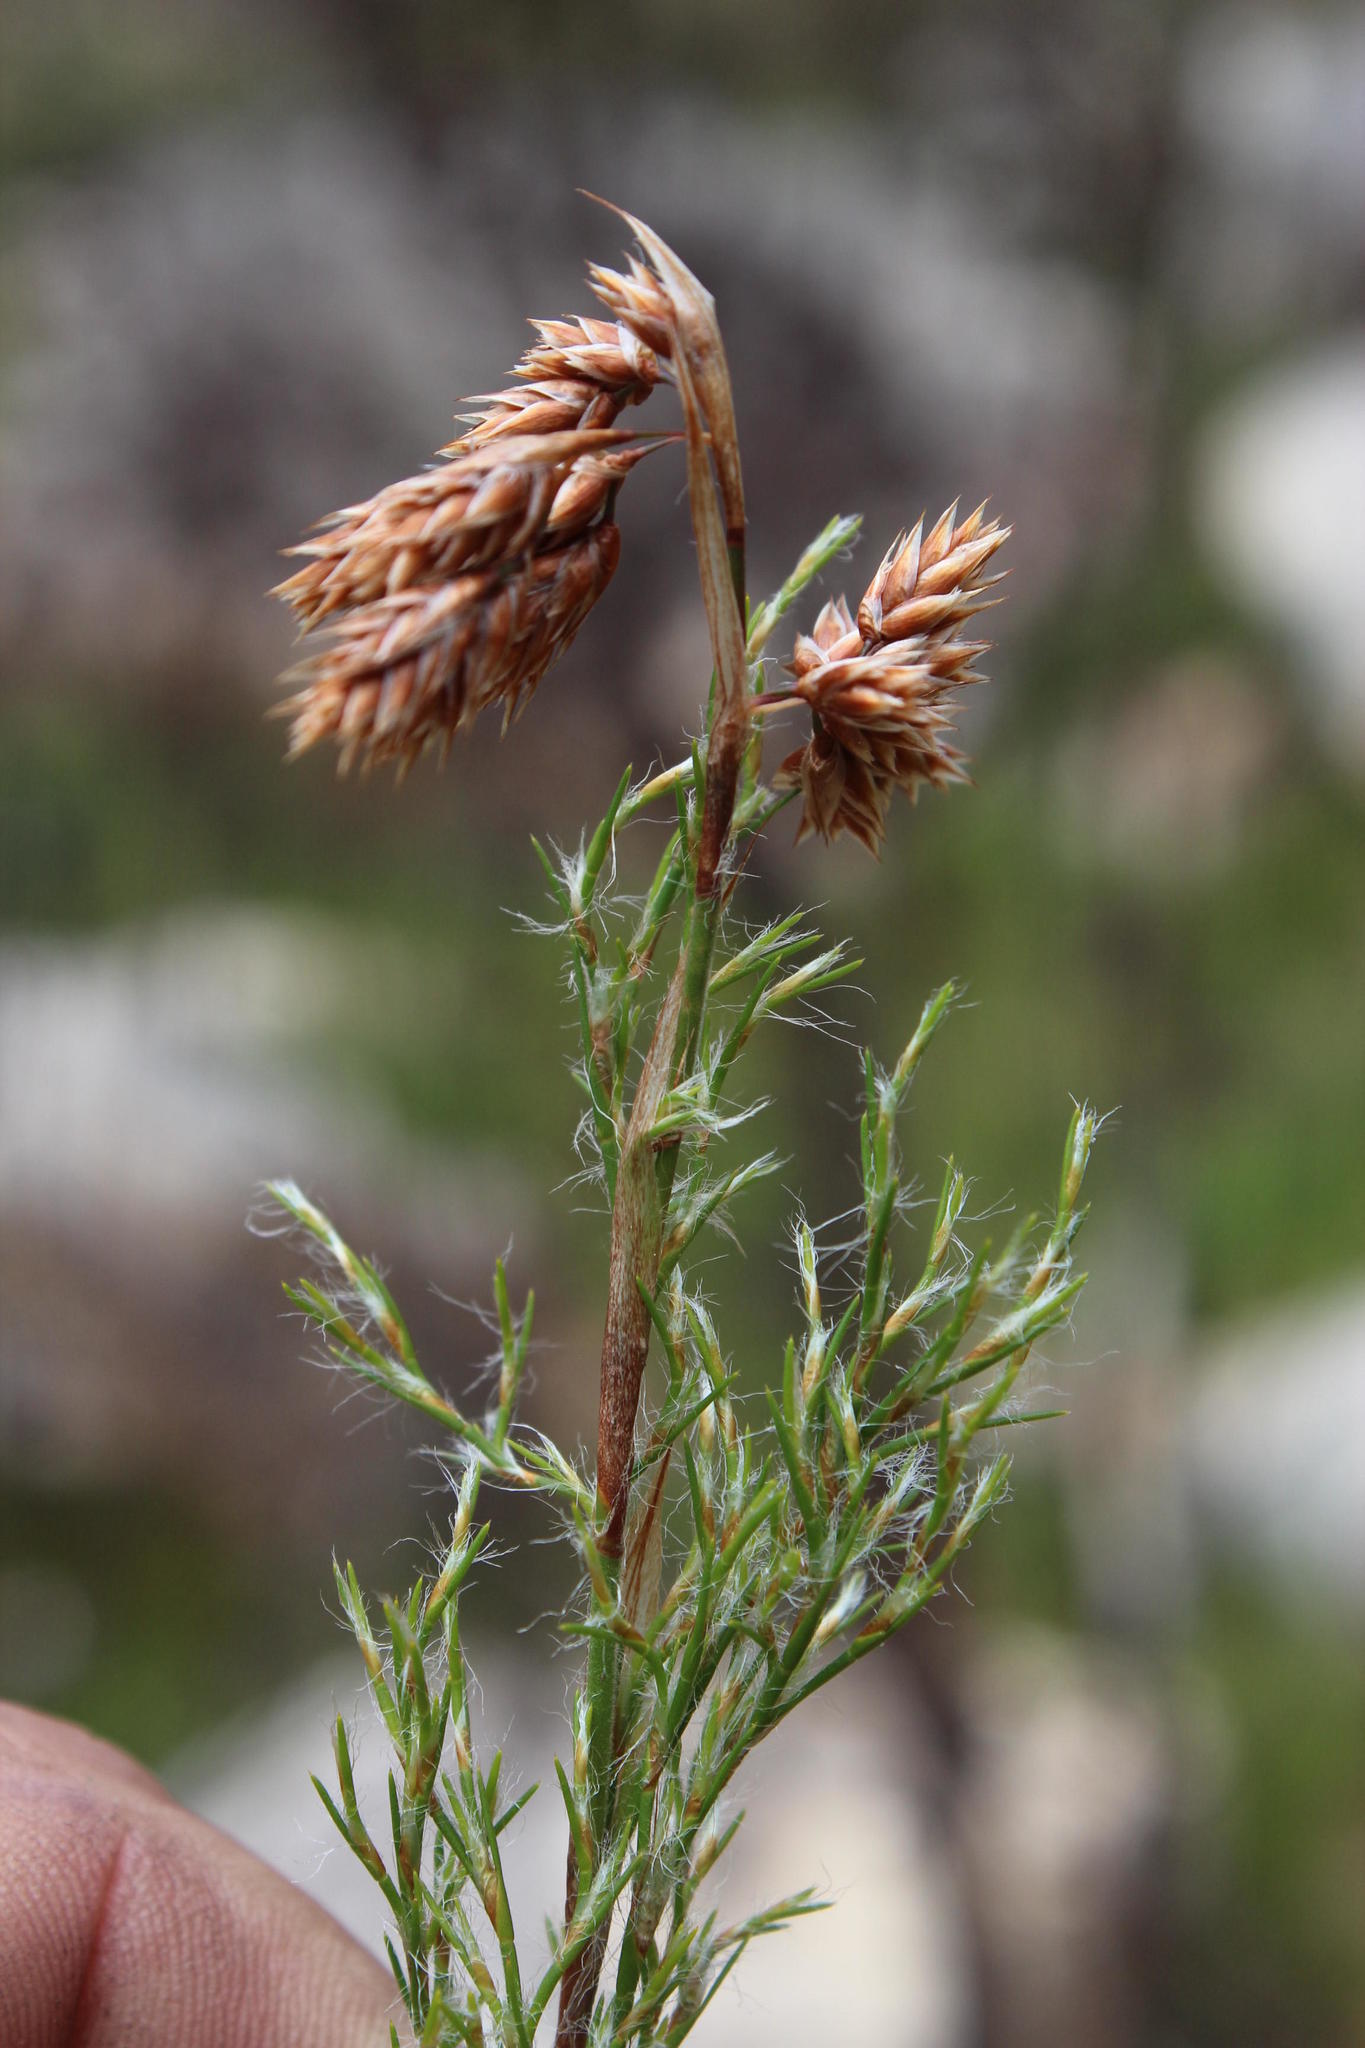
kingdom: Plantae
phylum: Tracheophyta
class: Liliopsida
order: Poales
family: Restionaceae
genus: Thamnochortus
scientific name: Thamnochortus fruticosus
